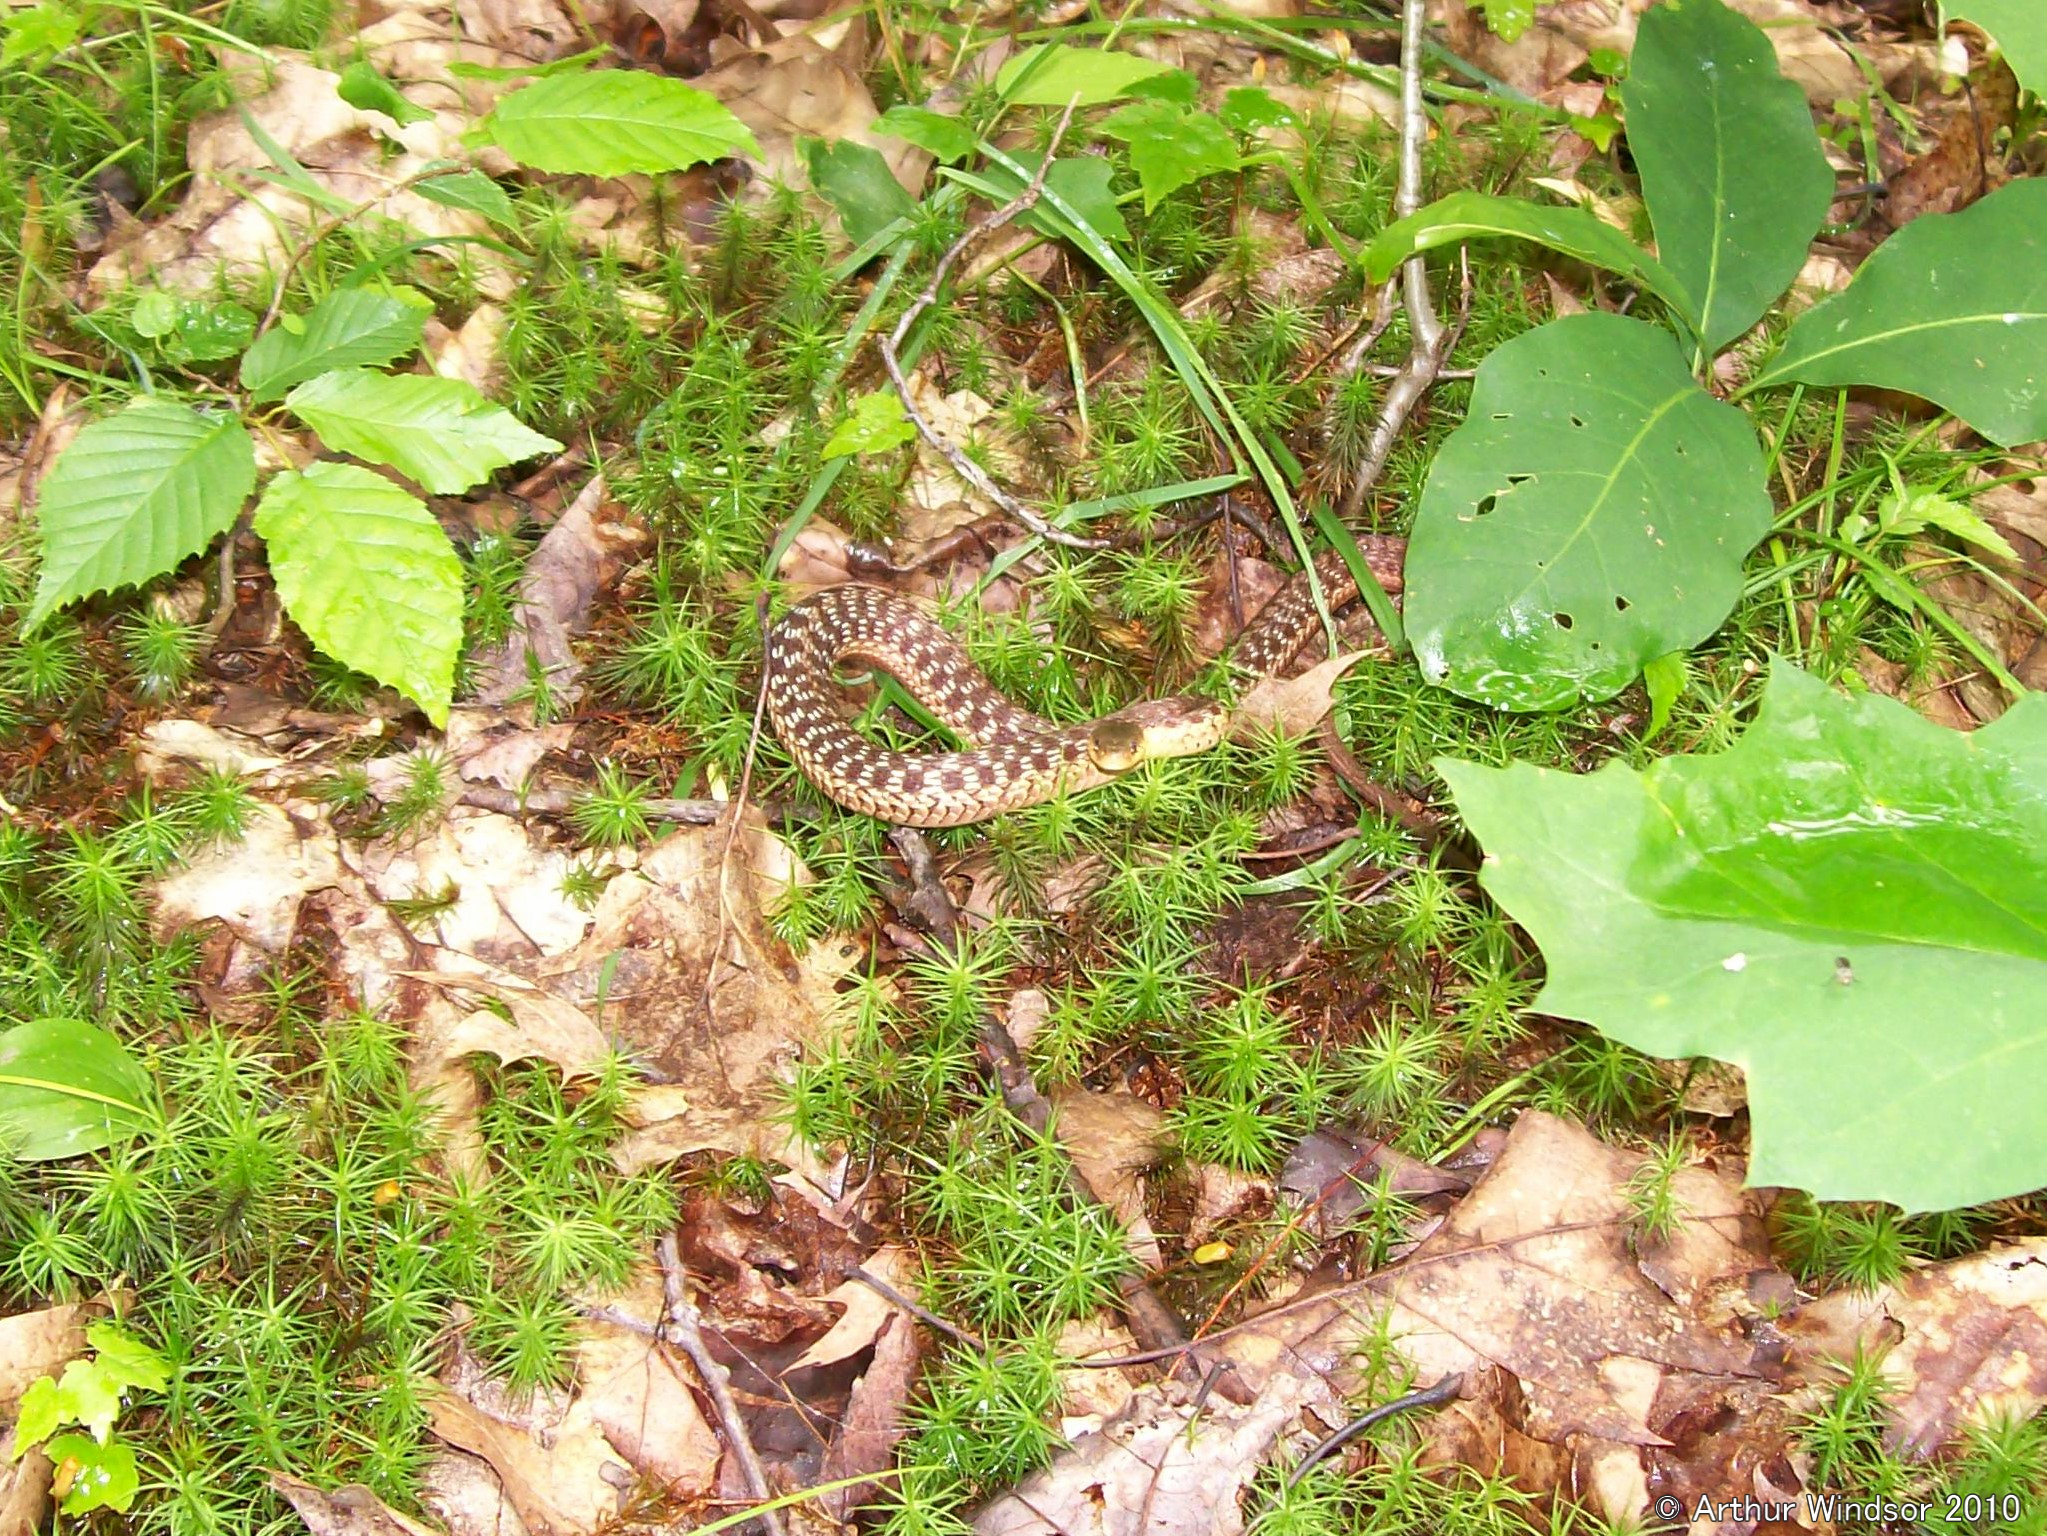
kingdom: Animalia
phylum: Chordata
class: Squamata
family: Colubridae
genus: Thamnophis
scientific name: Thamnophis sirtalis
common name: Common garter snake
